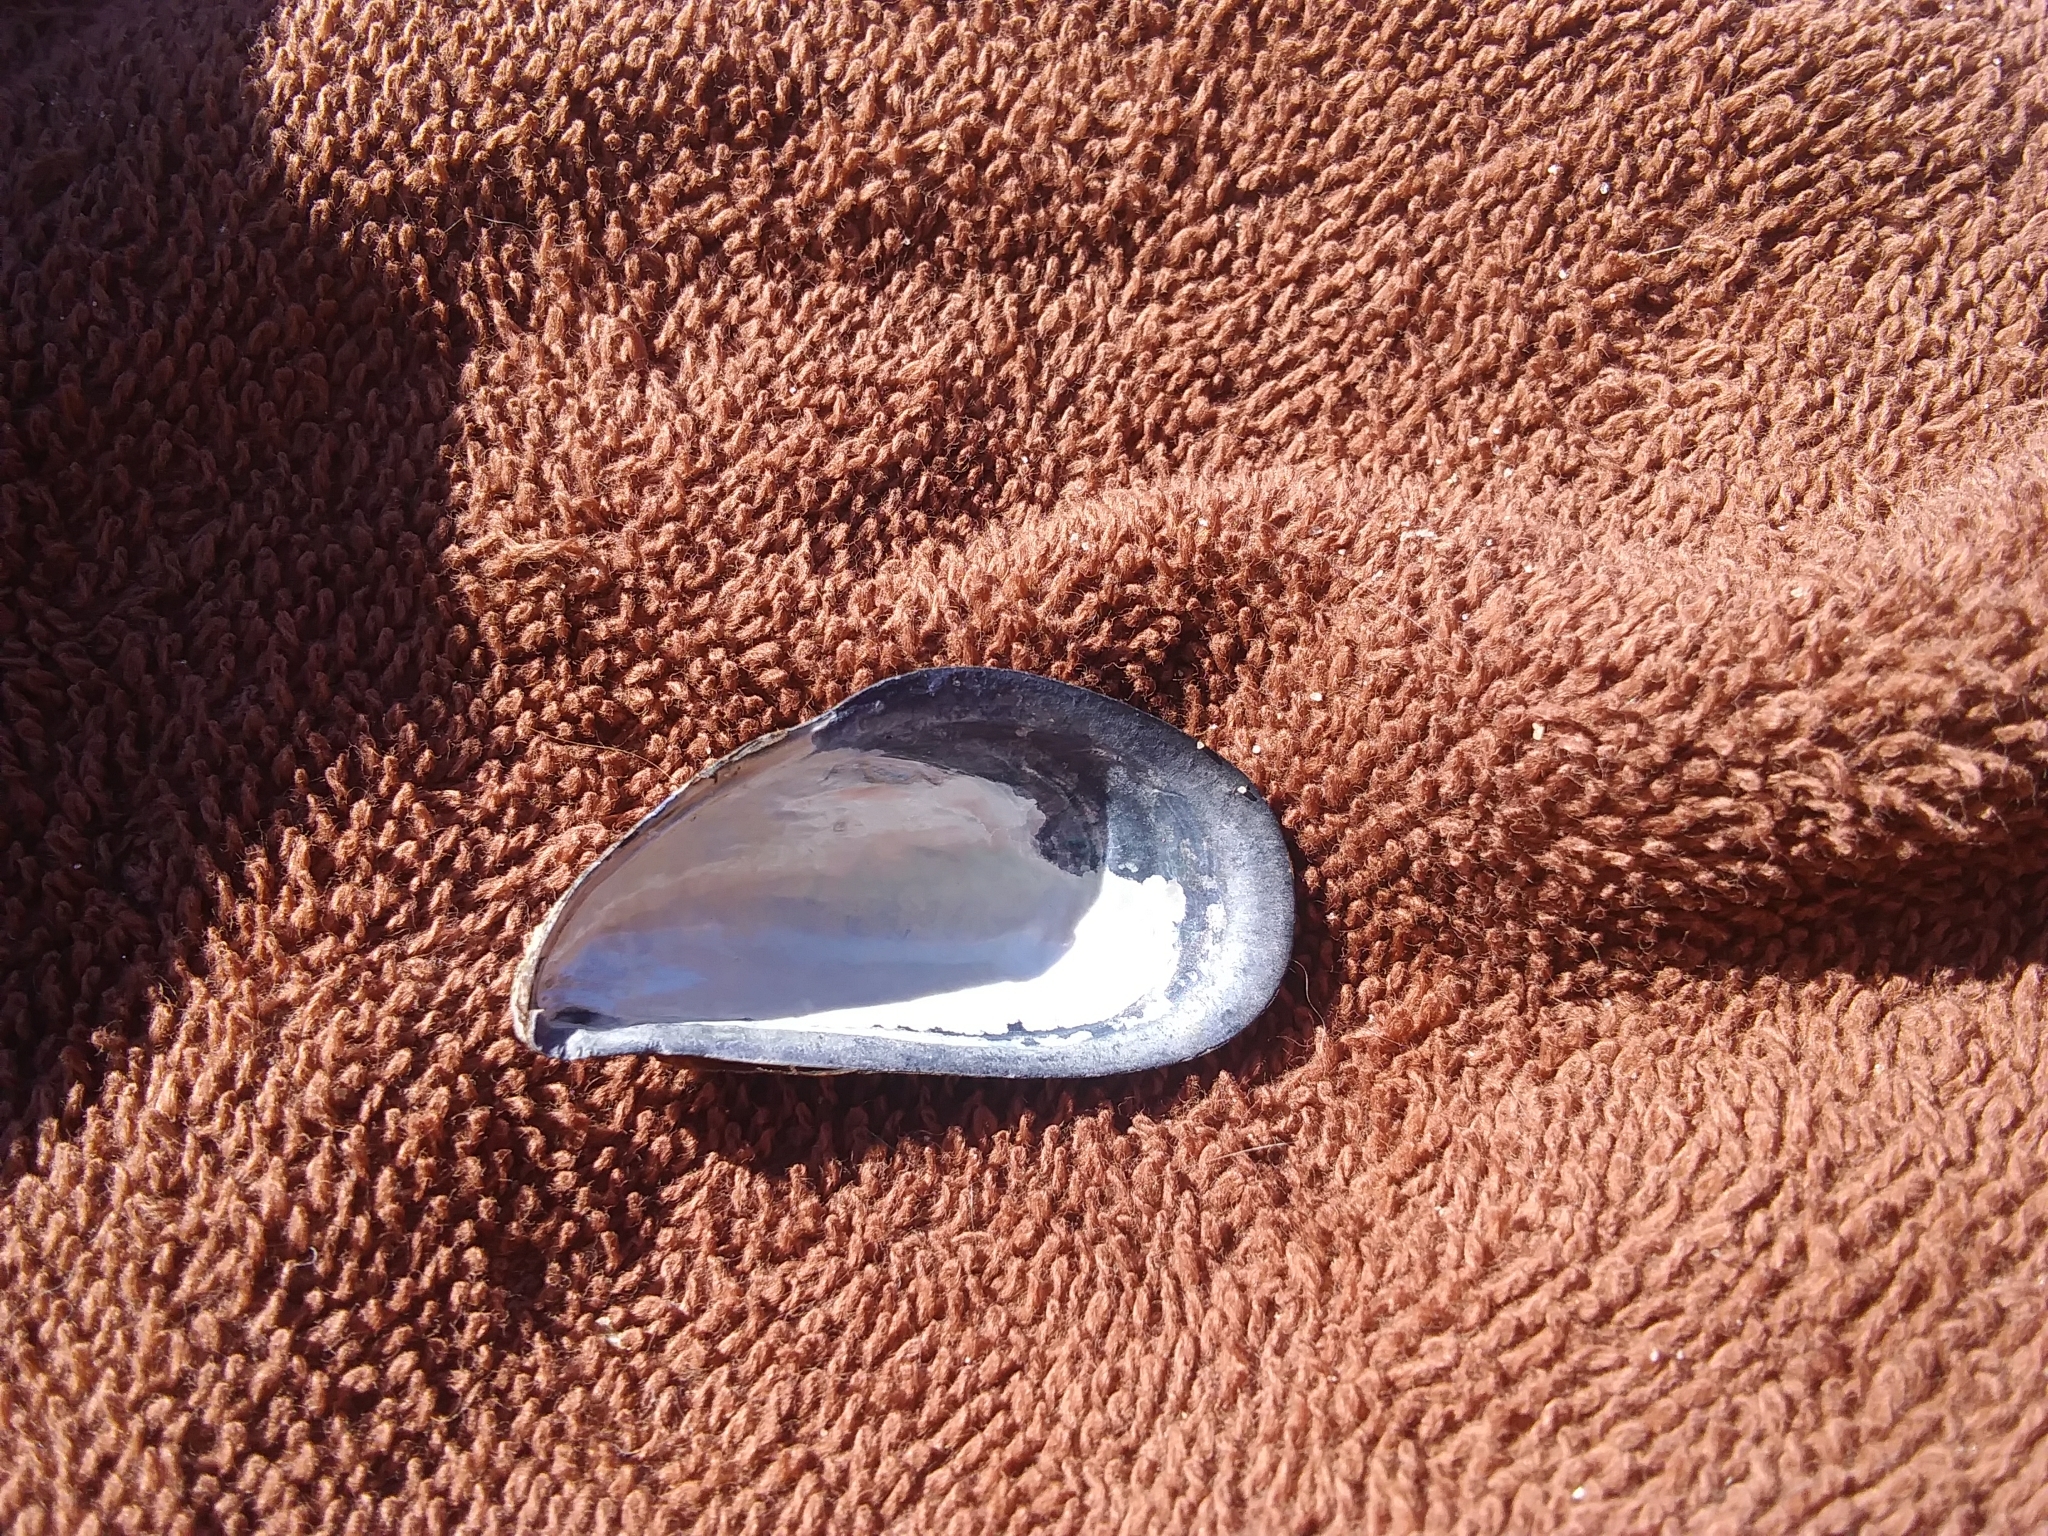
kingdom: Animalia
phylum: Mollusca
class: Bivalvia
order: Mytilida
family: Mytilidae
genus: Mytilus
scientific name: Mytilus edulis
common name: Blue mussel
